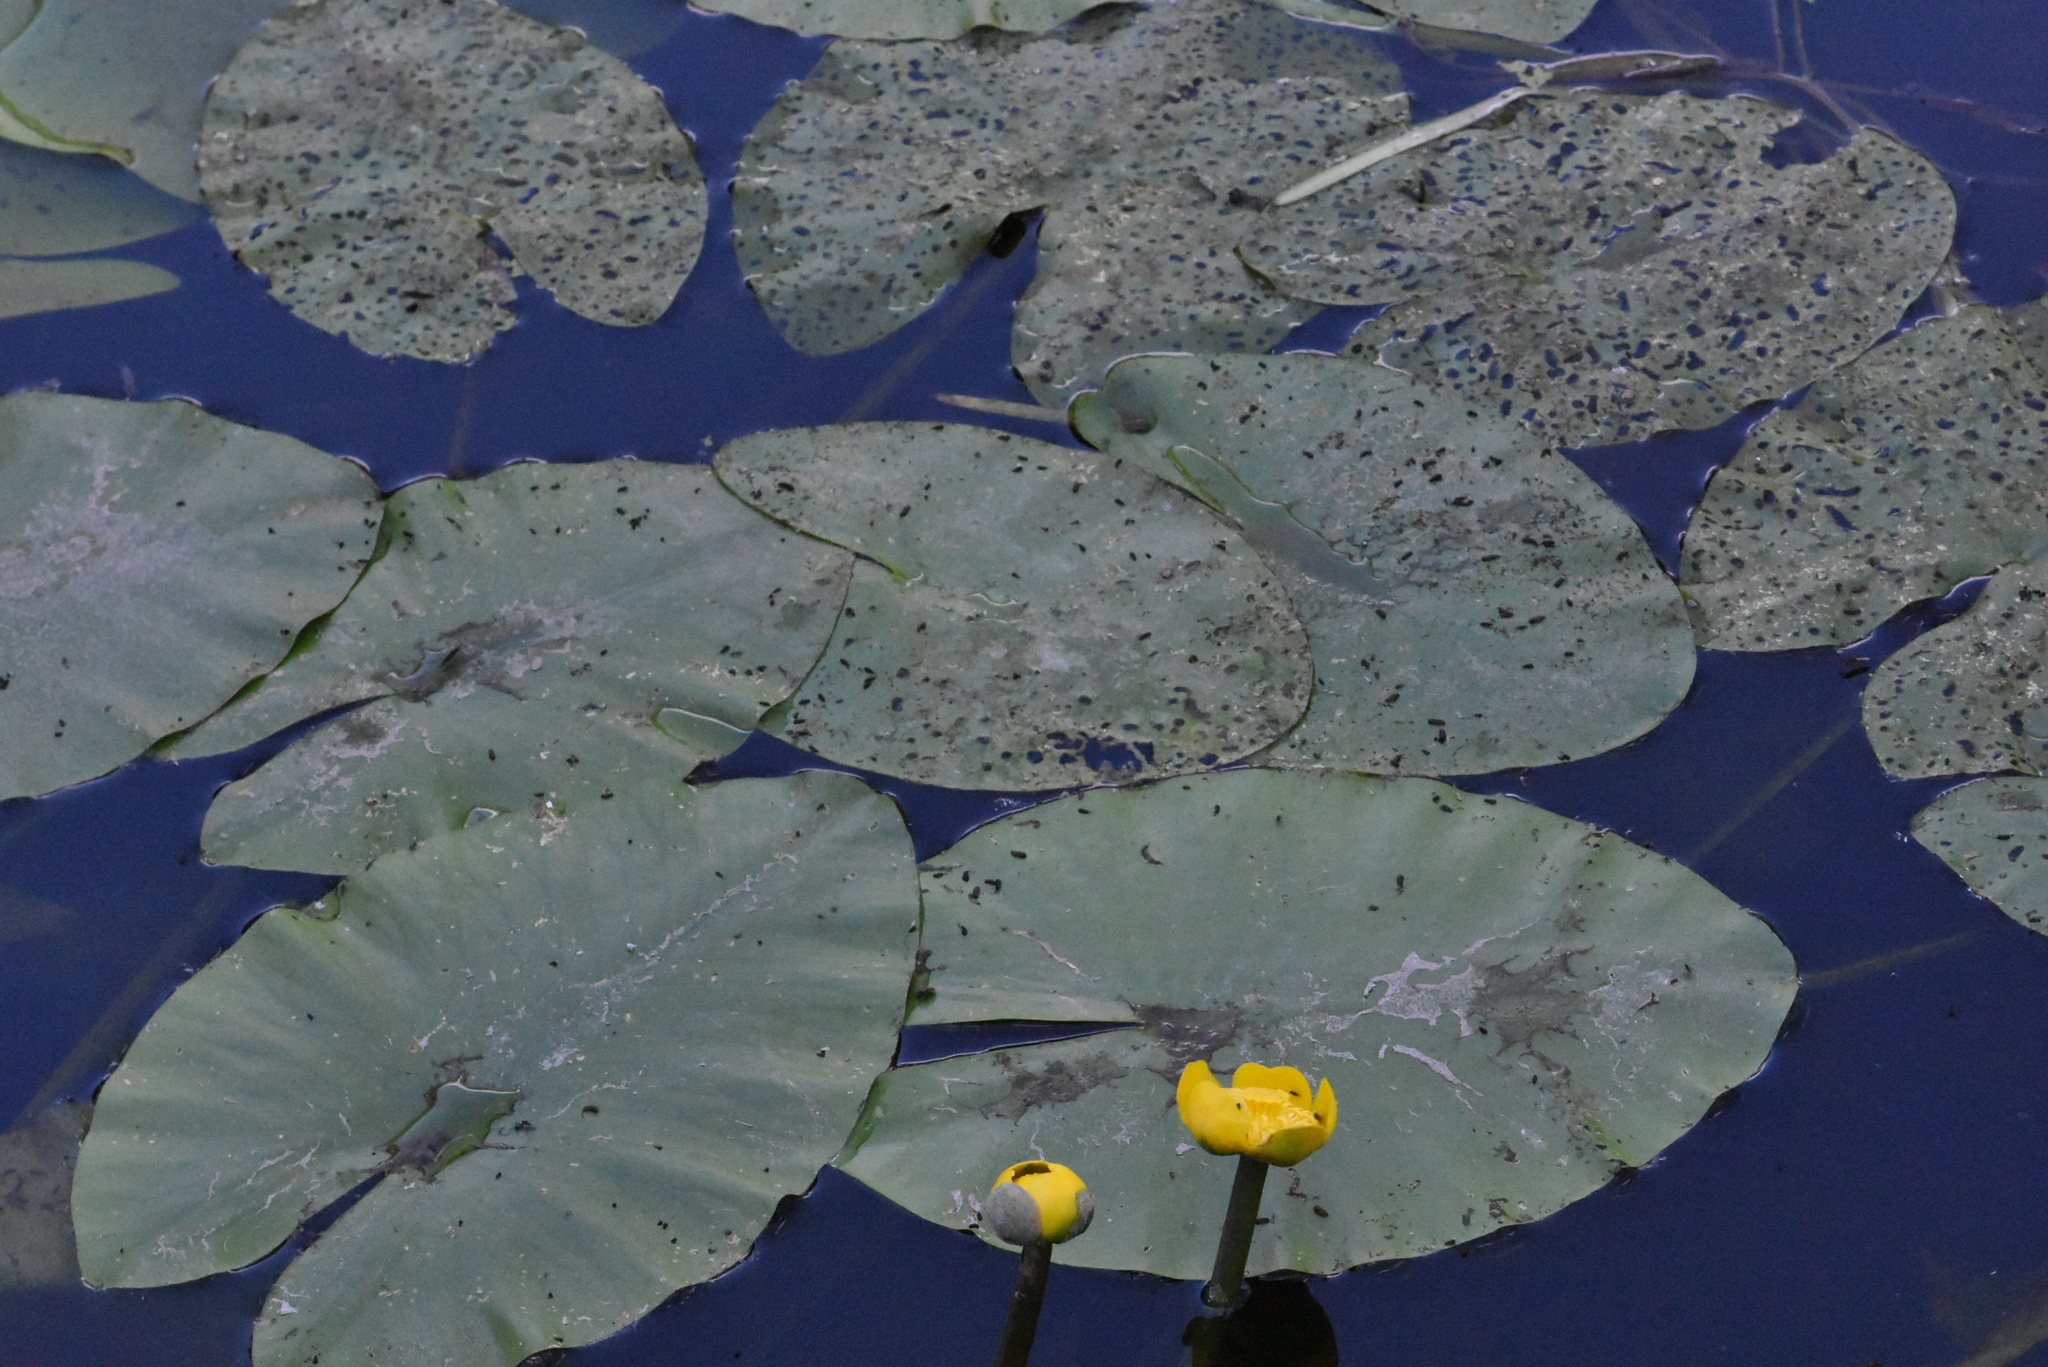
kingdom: Plantae
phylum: Tracheophyta
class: Magnoliopsida
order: Nymphaeales
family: Nymphaeaceae
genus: Nuphar
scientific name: Nuphar lutea
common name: Yellow water-lily
